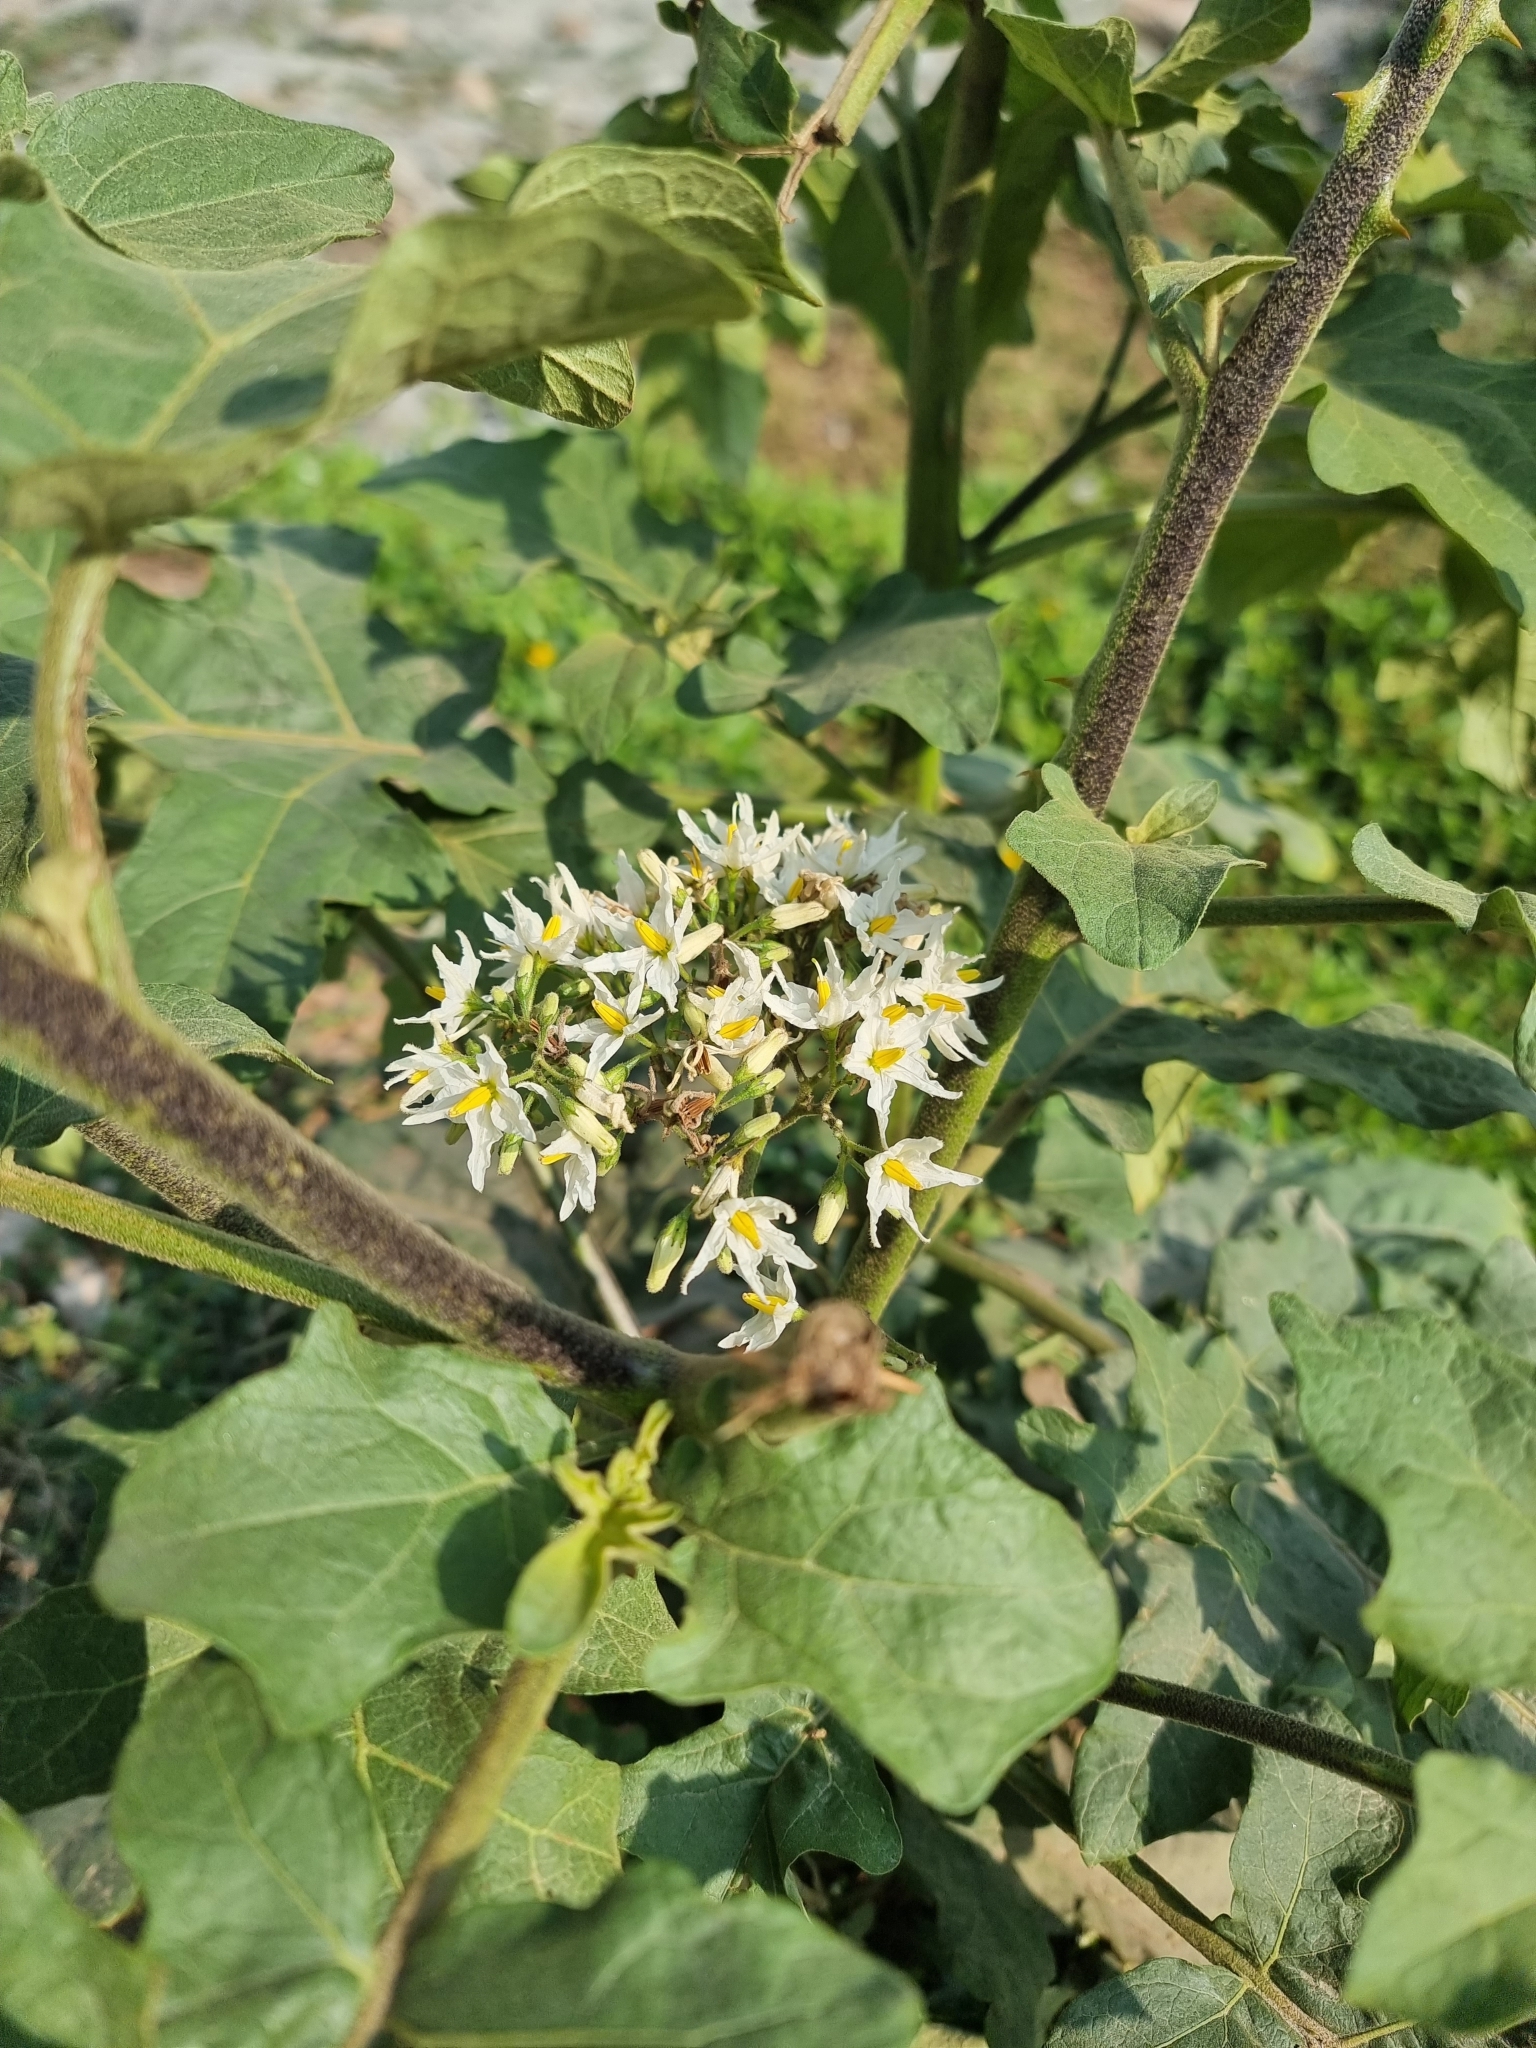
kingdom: Plantae
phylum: Tracheophyta
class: Magnoliopsida
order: Solanales
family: Solanaceae
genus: Solanum
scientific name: Solanum torvum
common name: Turkey berry
